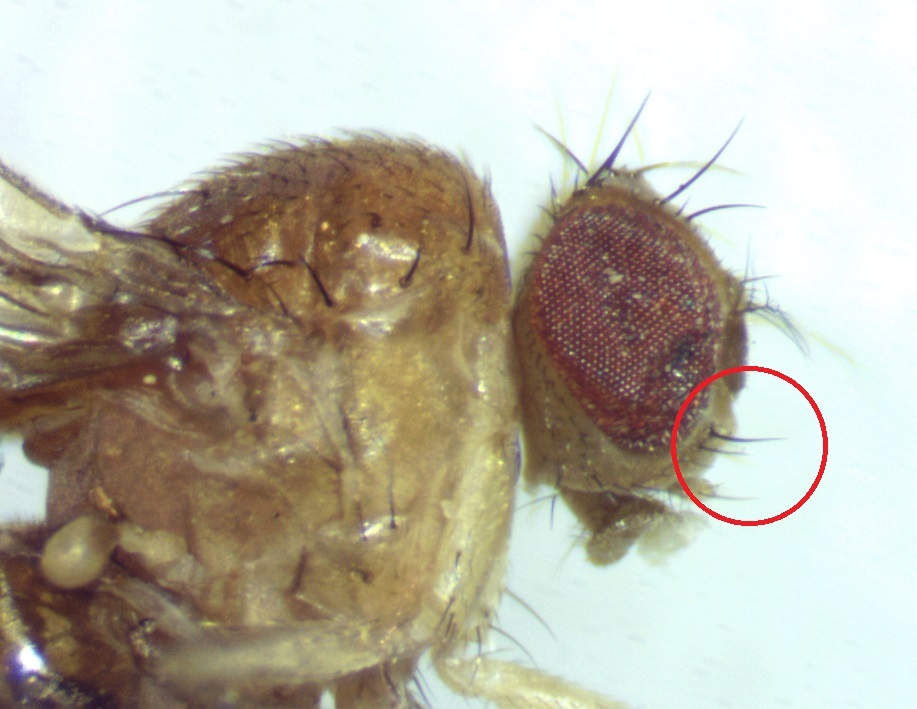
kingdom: Animalia
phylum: Arthropoda
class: Insecta
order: Diptera
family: Drosophilidae
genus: Drosophila
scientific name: Drosophila falleni
